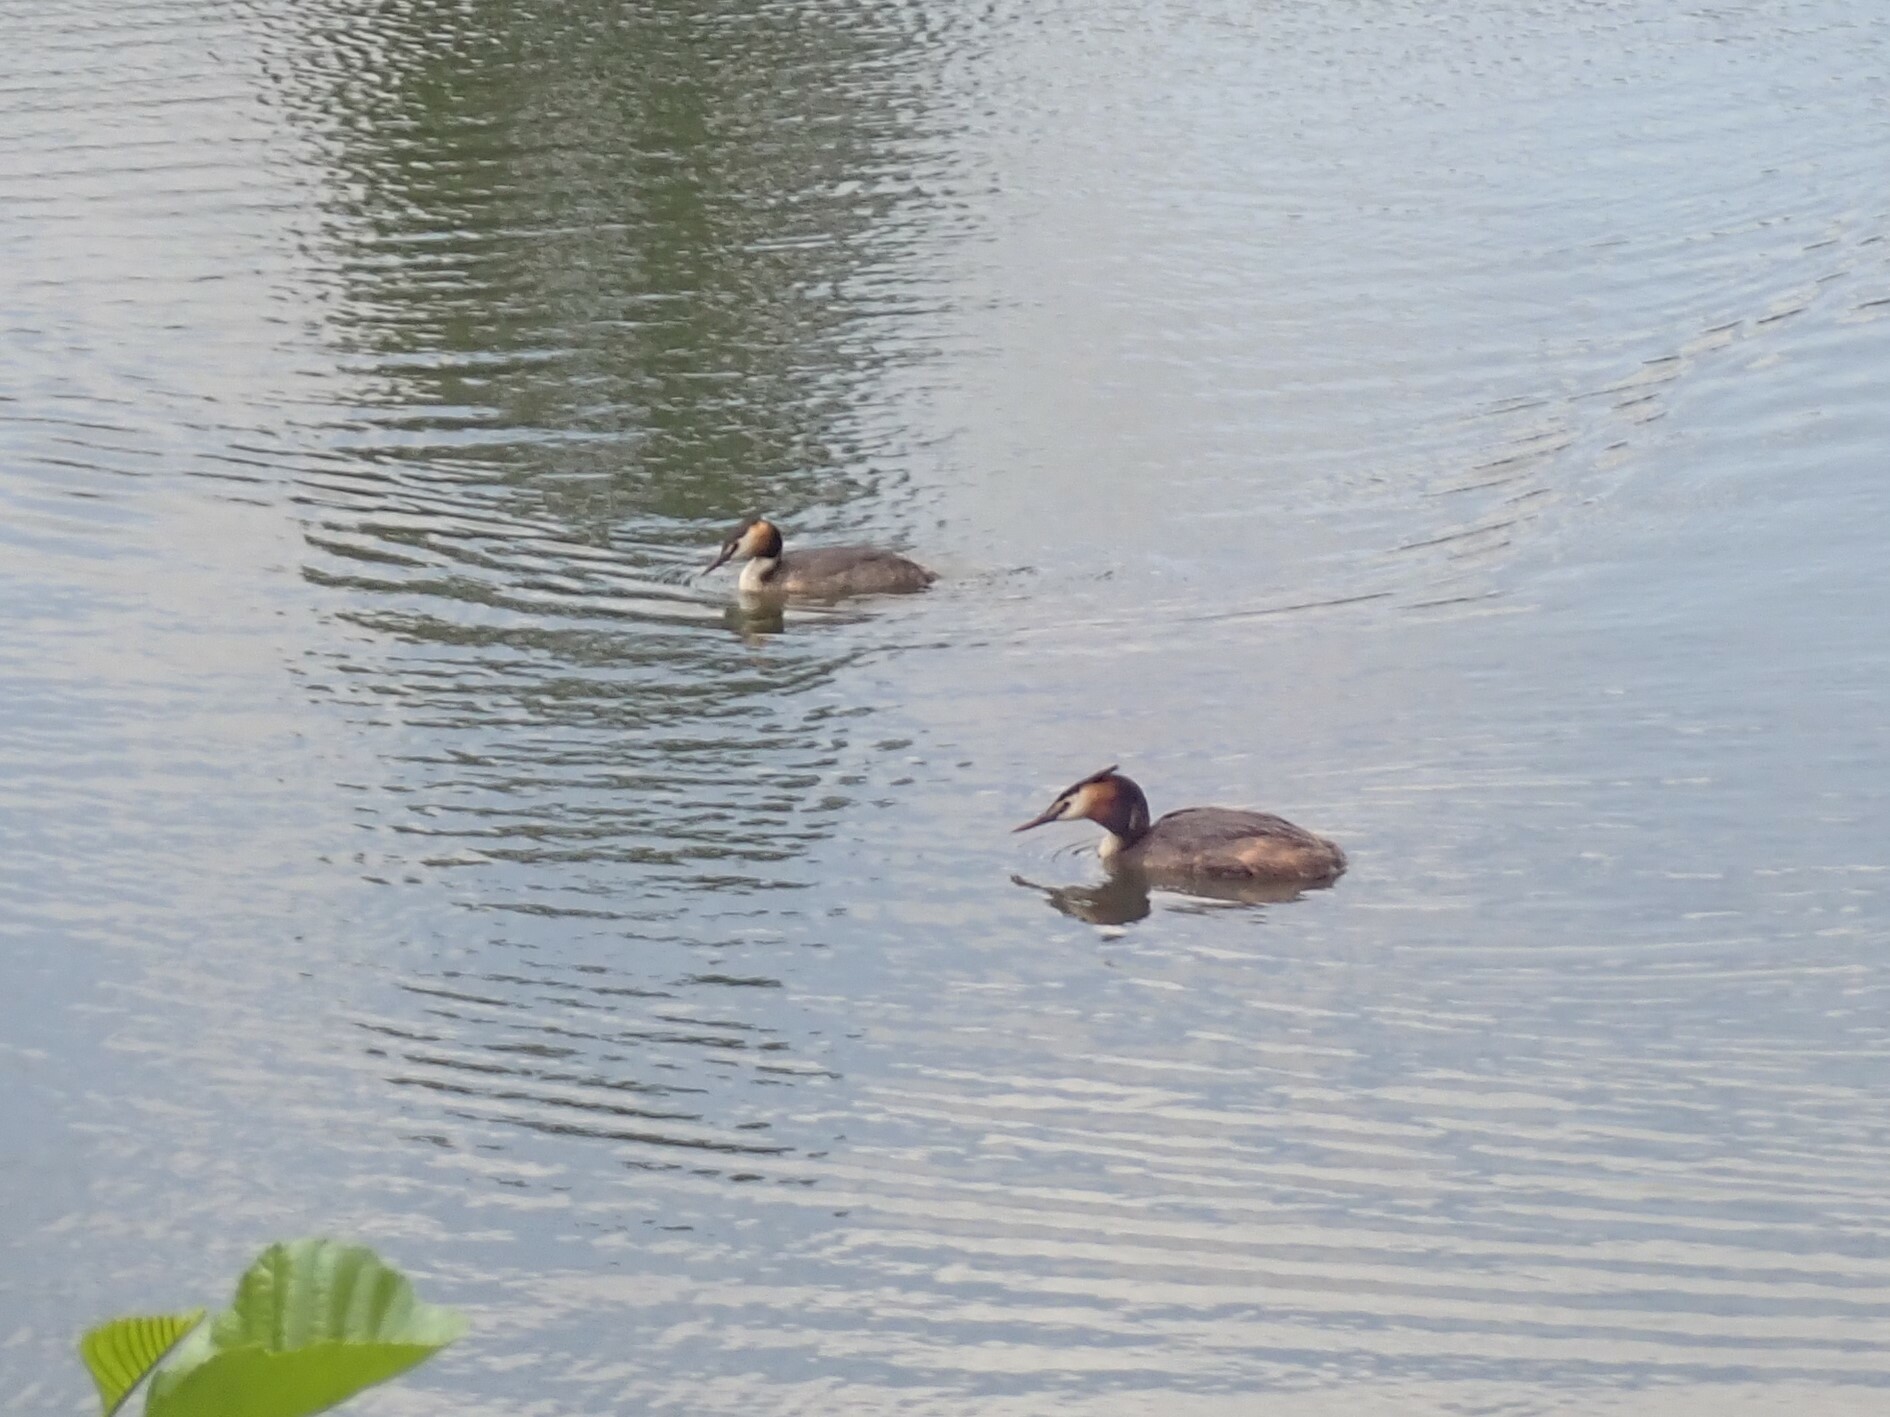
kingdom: Animalia
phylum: Chordata
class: Aves
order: Podicipediformes
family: Podicipedidae
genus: Podiceps
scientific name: Podiceps cristatus
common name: Great crested grebe
